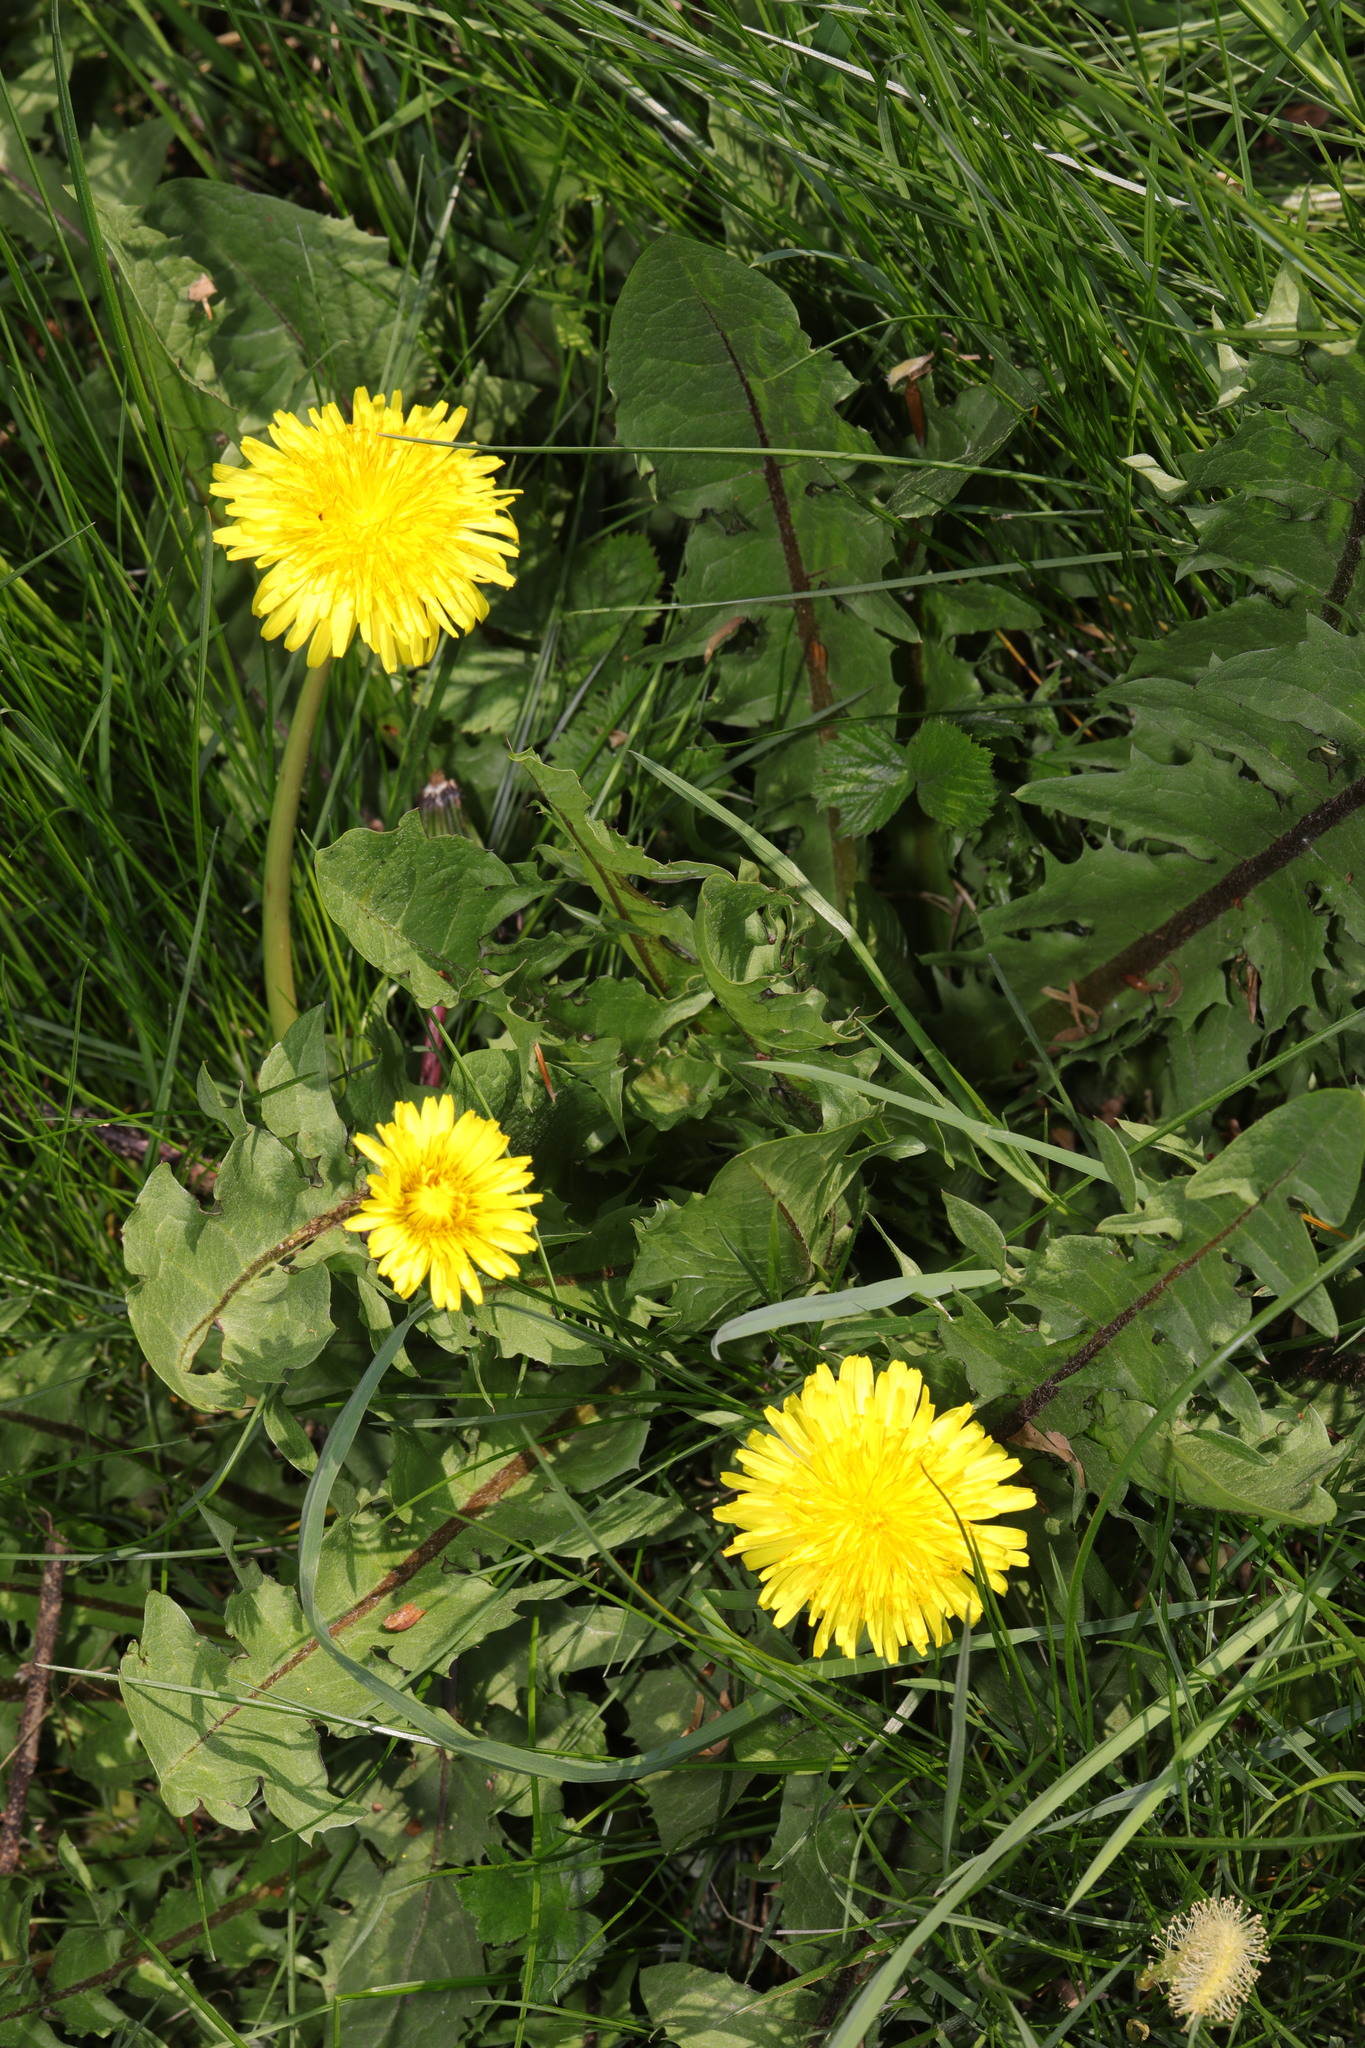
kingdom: Plantae
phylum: Tracheophyta
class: Magnoliopsida
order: Asterales
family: Asteraceae
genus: Taraxacum
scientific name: Taraxacum officinale
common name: Common dandelion
